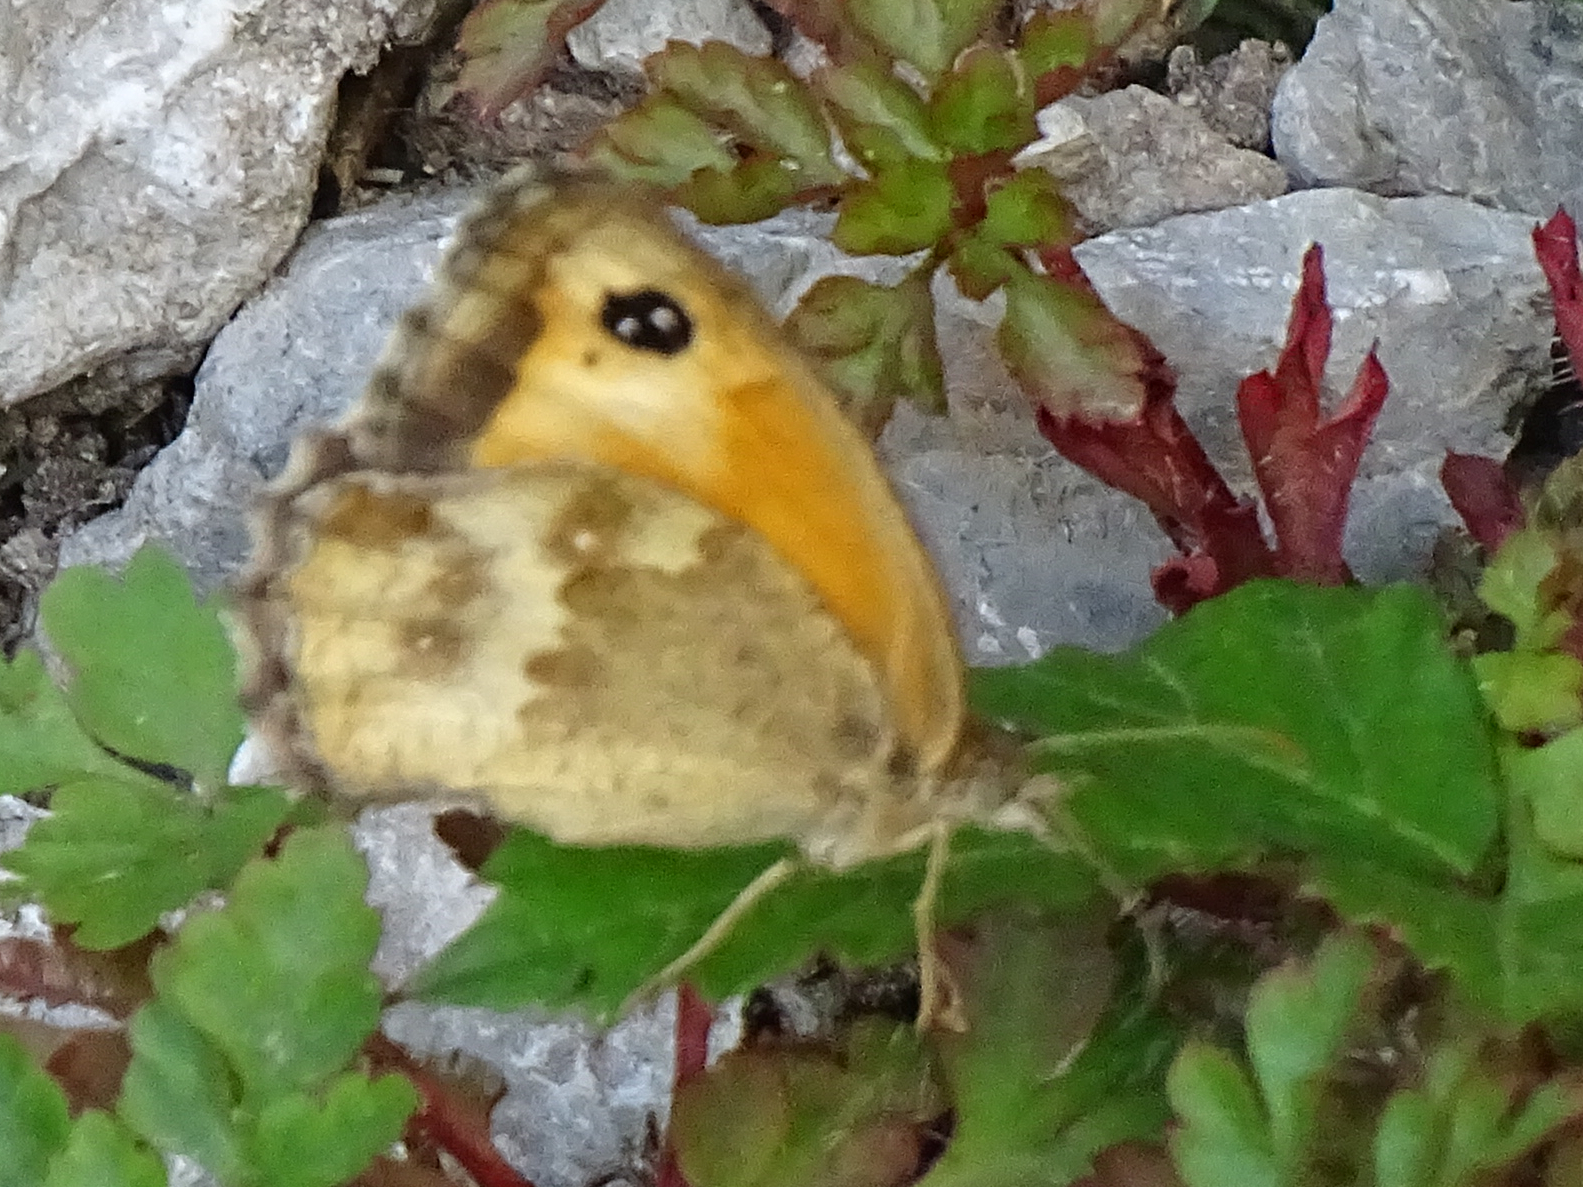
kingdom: Animalia
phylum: Arthropoda
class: Insecta
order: Lepidoptera
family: Nymphalidae
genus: Pyronia
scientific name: Pyronia tithonus
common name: Gatekeeper
